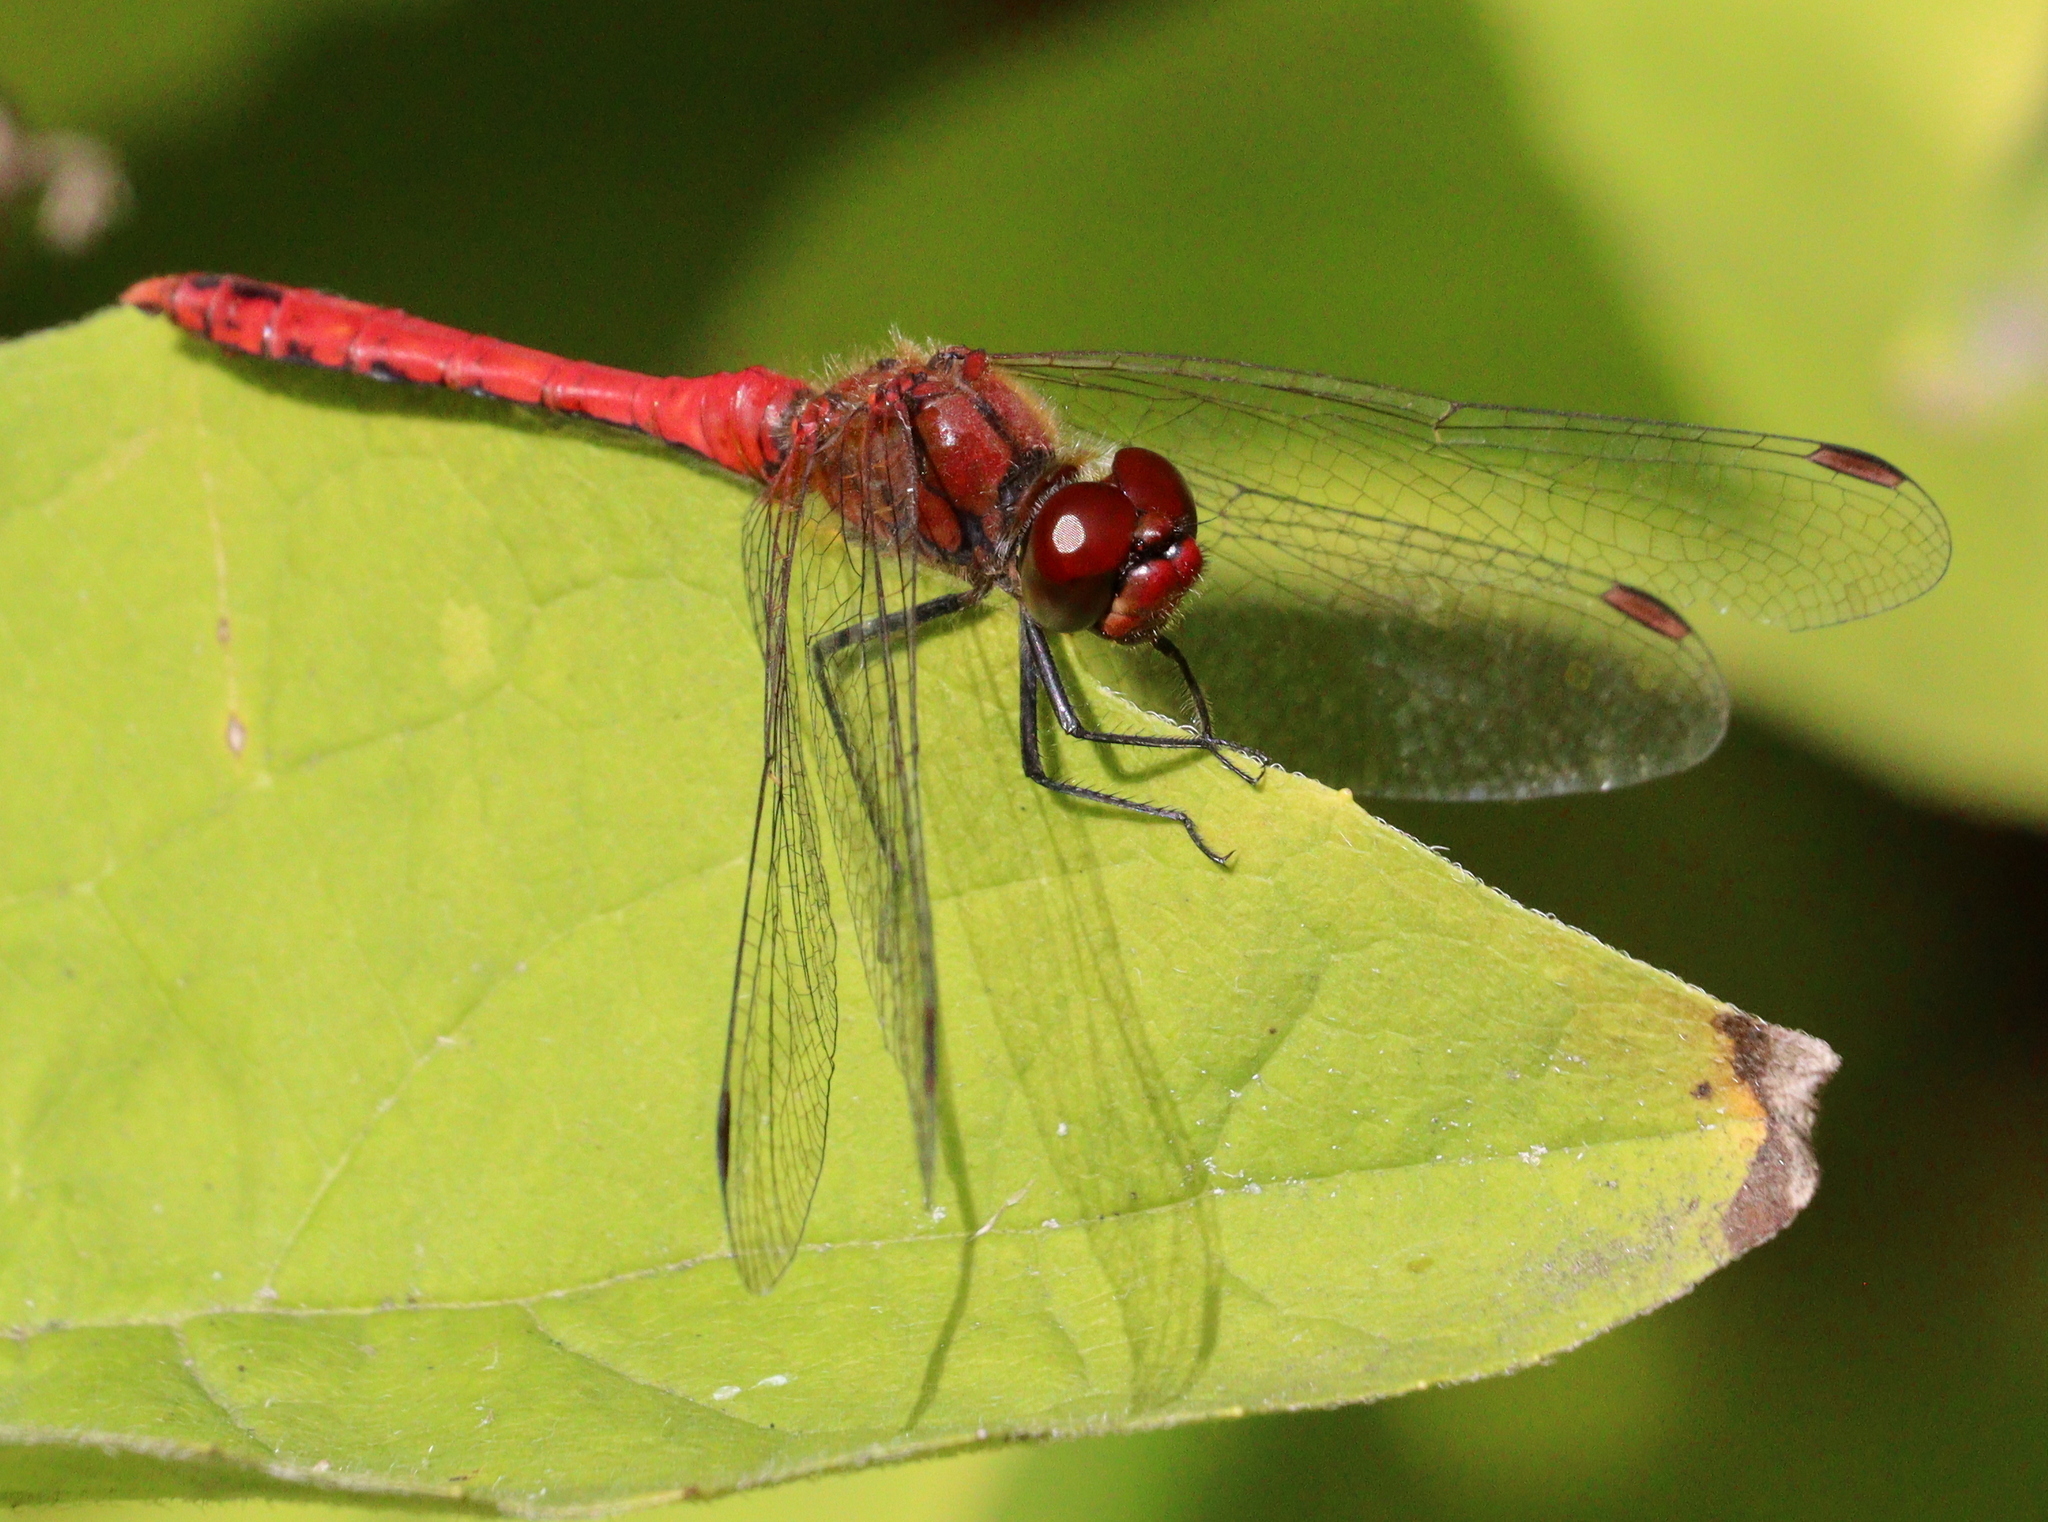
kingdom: Animalia
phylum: Arthropoda
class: Insecta
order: Odonata
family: Libellulidae
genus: Sympetrum
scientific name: Sympetrum sanguineum
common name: Ruddy darter
